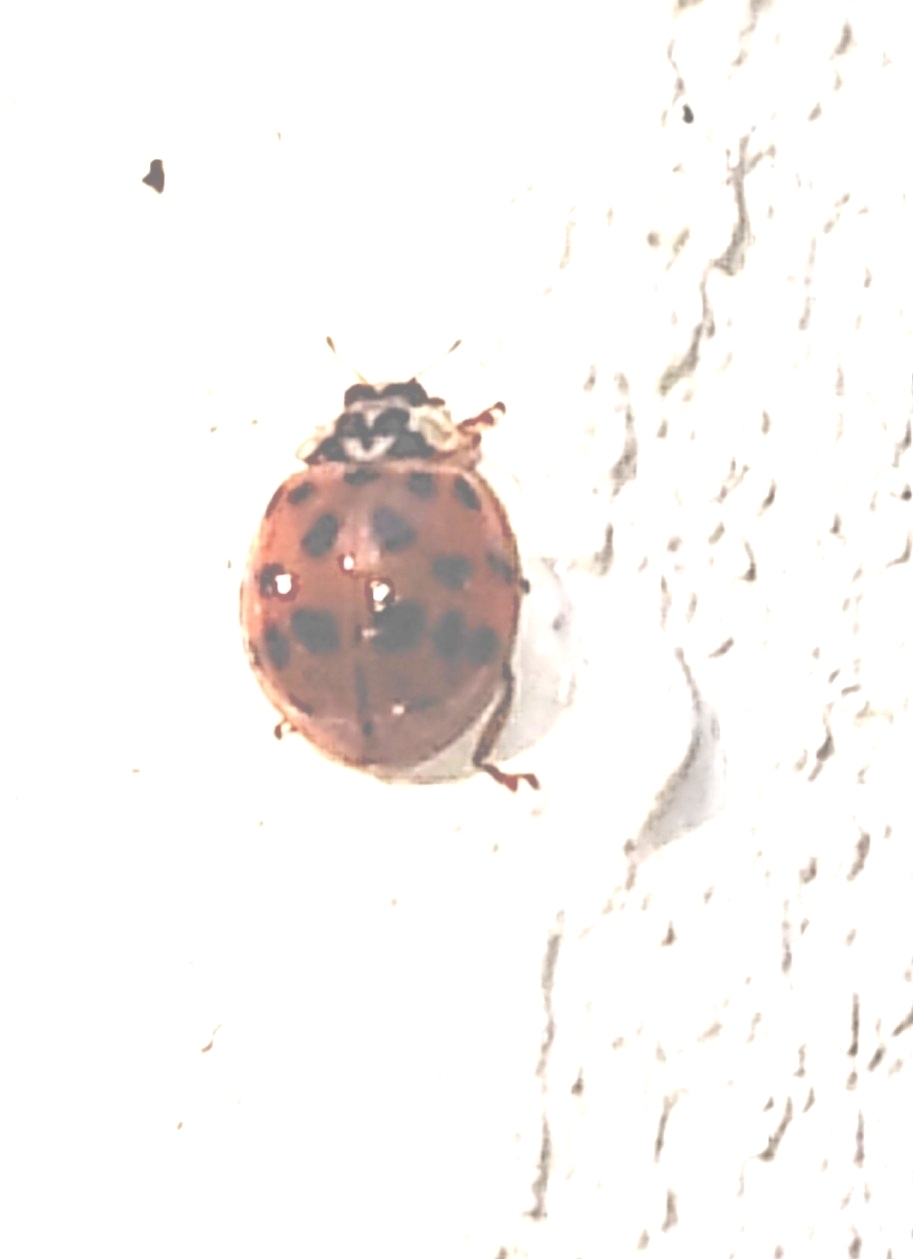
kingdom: Animalia
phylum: Arthropoda
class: Insecta
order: Coleoptera
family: Coccinellidae
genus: Harmonia
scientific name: Harmonia axyridis
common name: Harlequin ladybird
